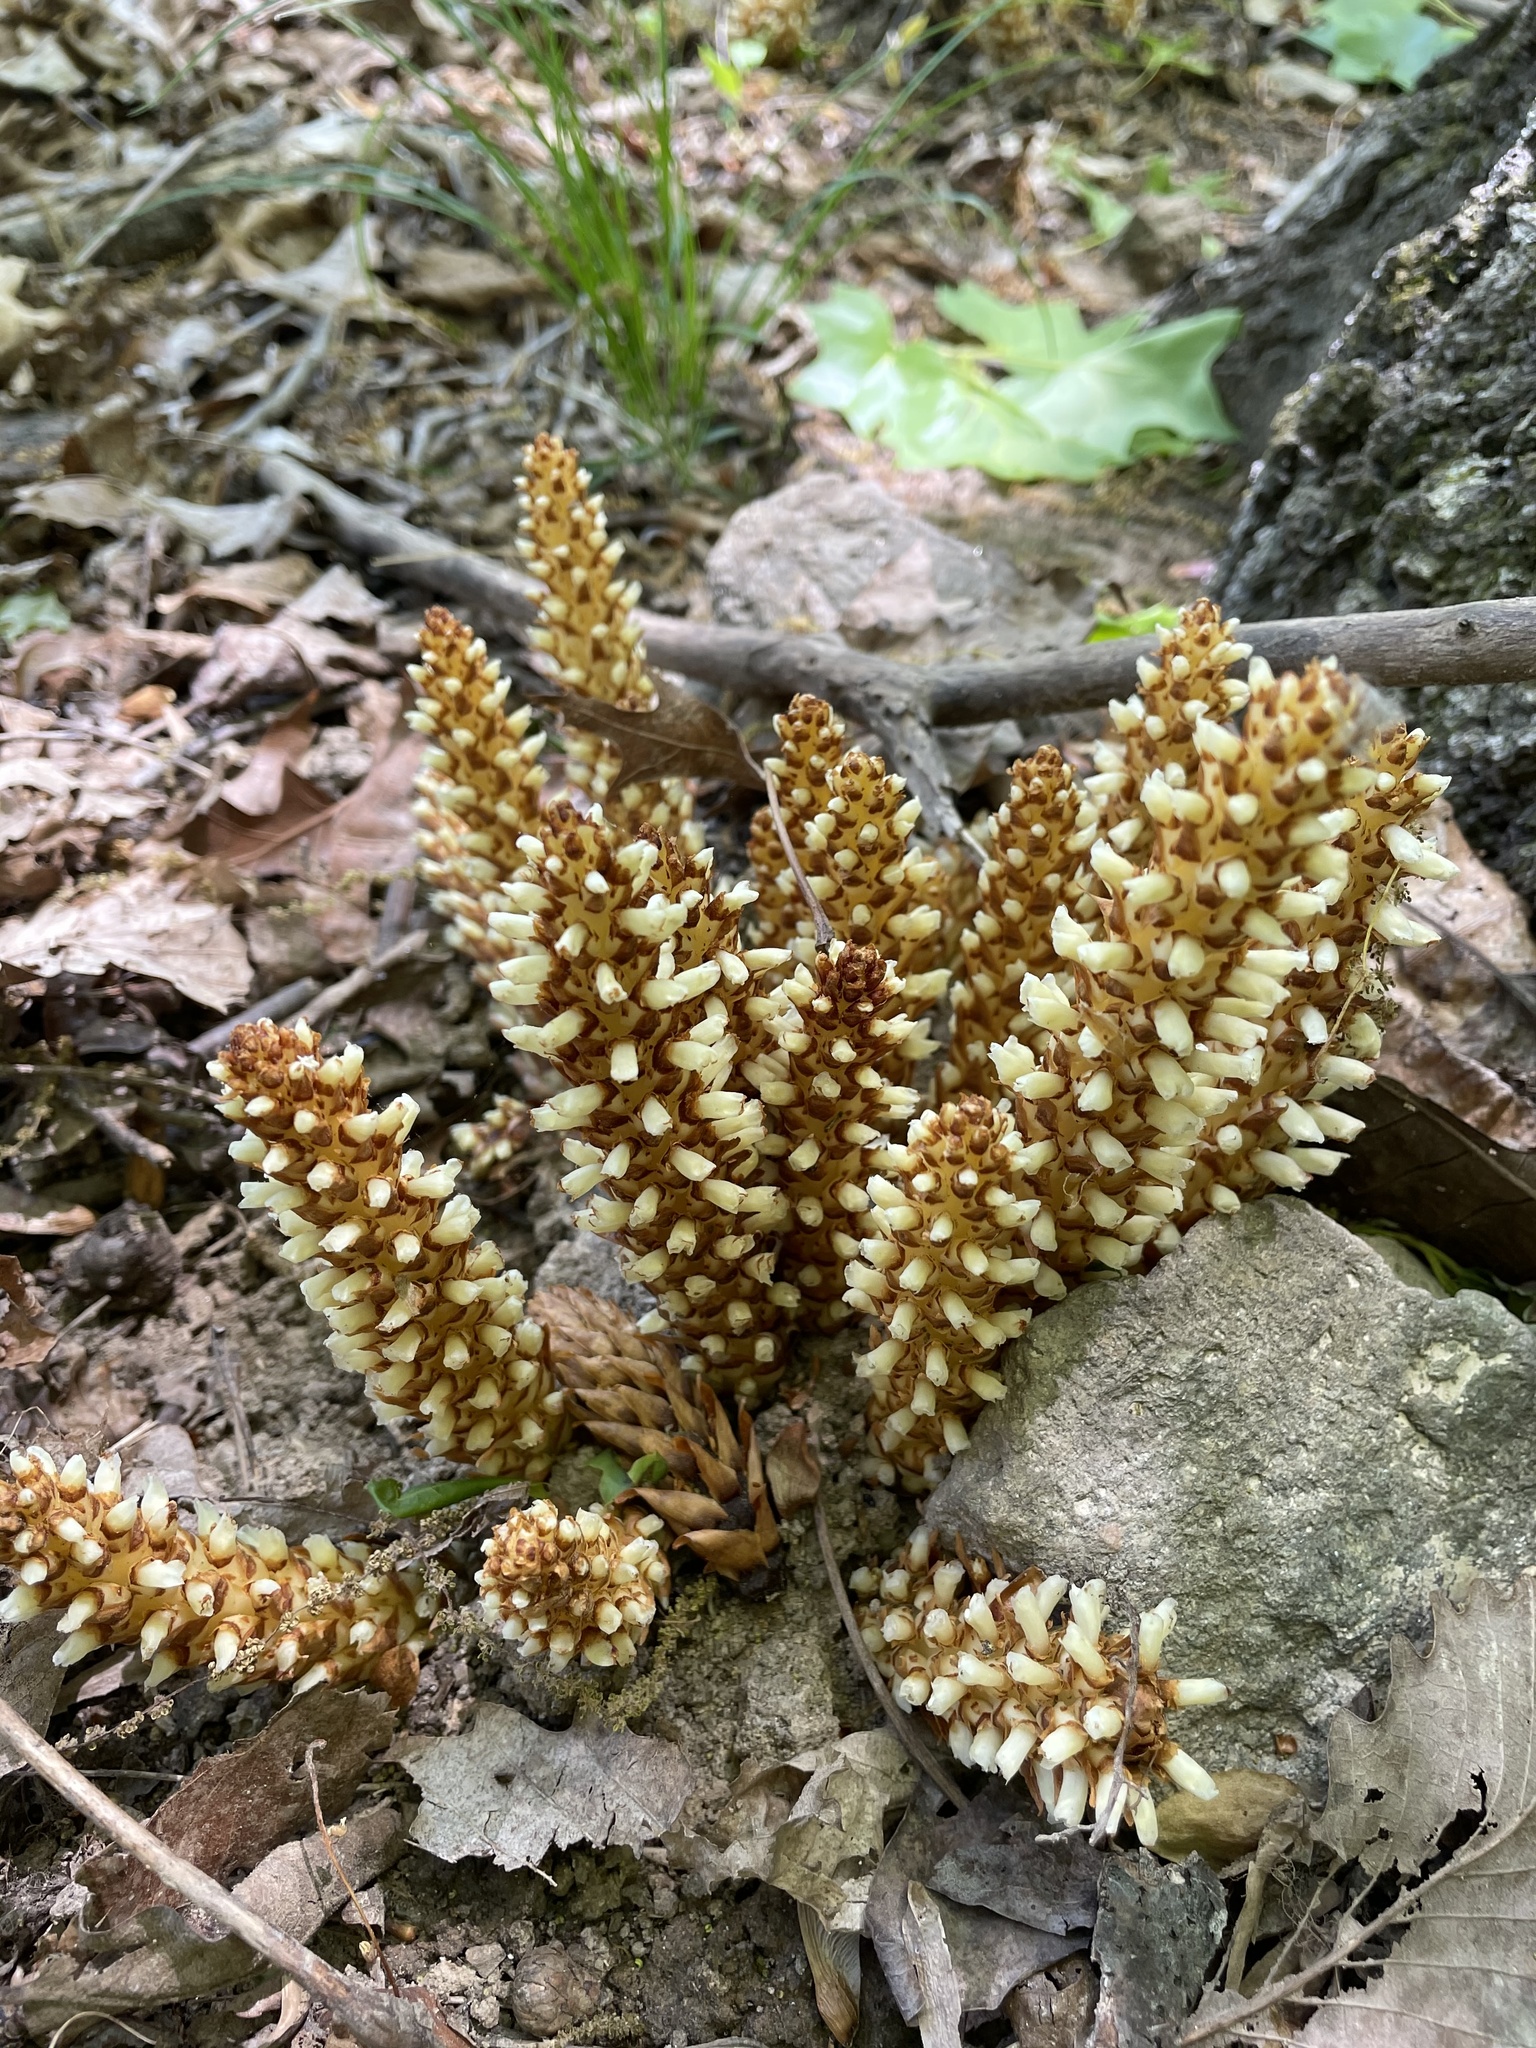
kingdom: Plantae
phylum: Tracheophyta
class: Magnoliopsida
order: Lamiales
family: Orobanchaceae
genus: Conopholis
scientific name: Conopholis americana
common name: American cancer-root
